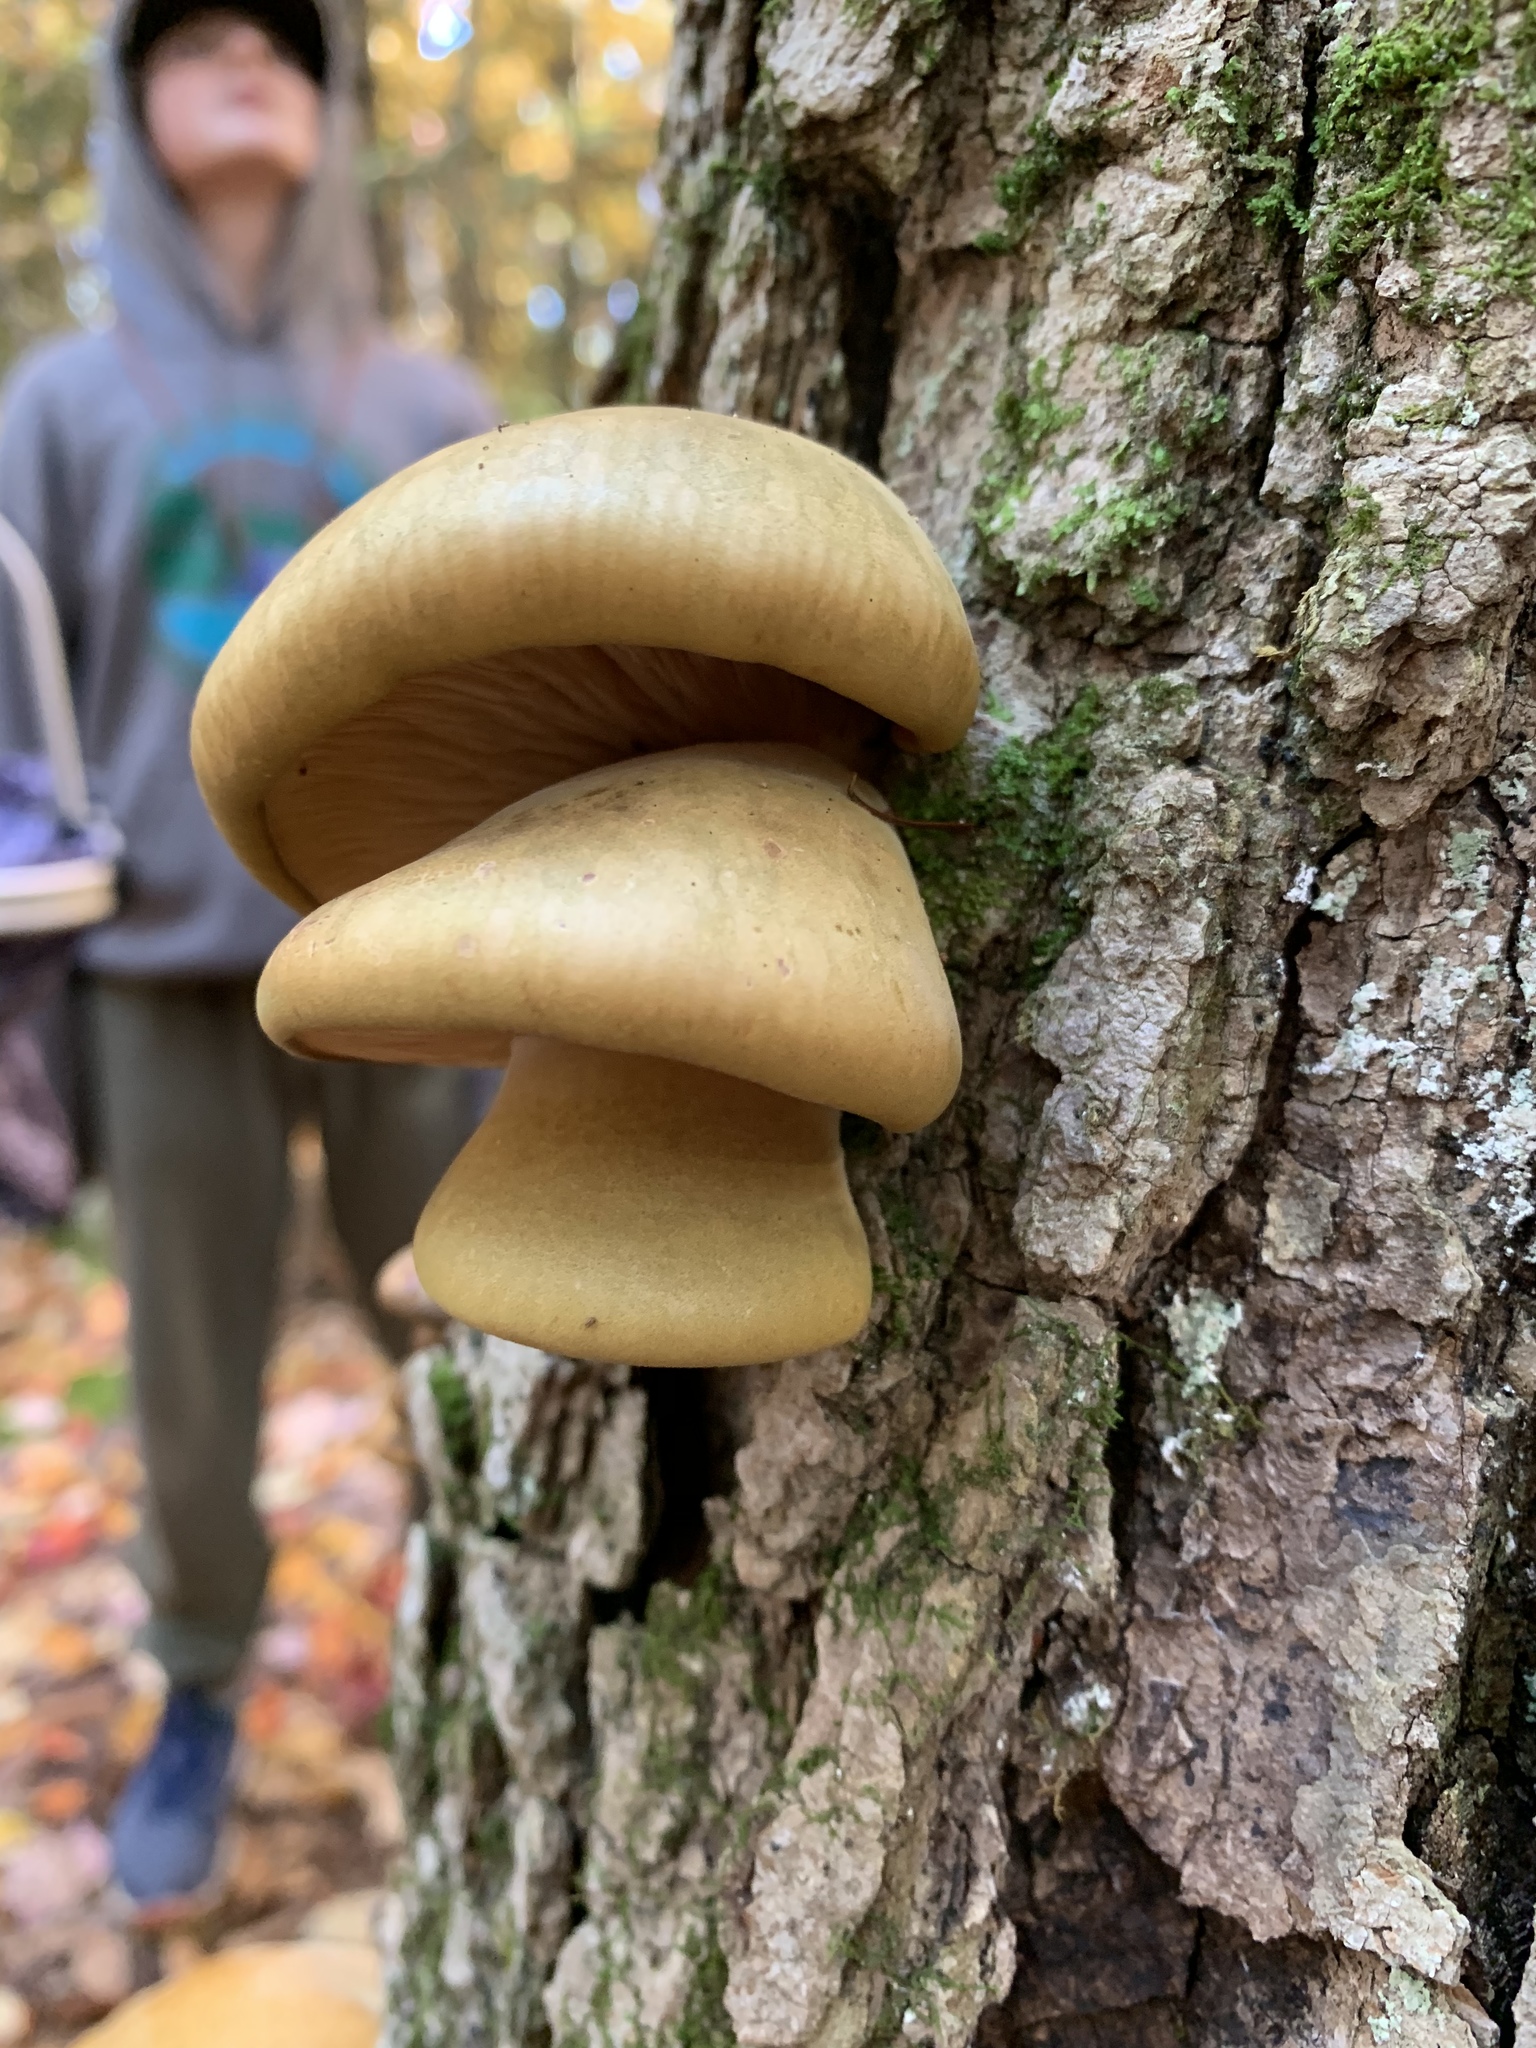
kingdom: Fungi
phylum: Basidiomycota
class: Agaricomycetes
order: Agaricales
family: Sarcomyxaceae
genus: Sarcomyxa
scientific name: Sarcomyxa serotina
